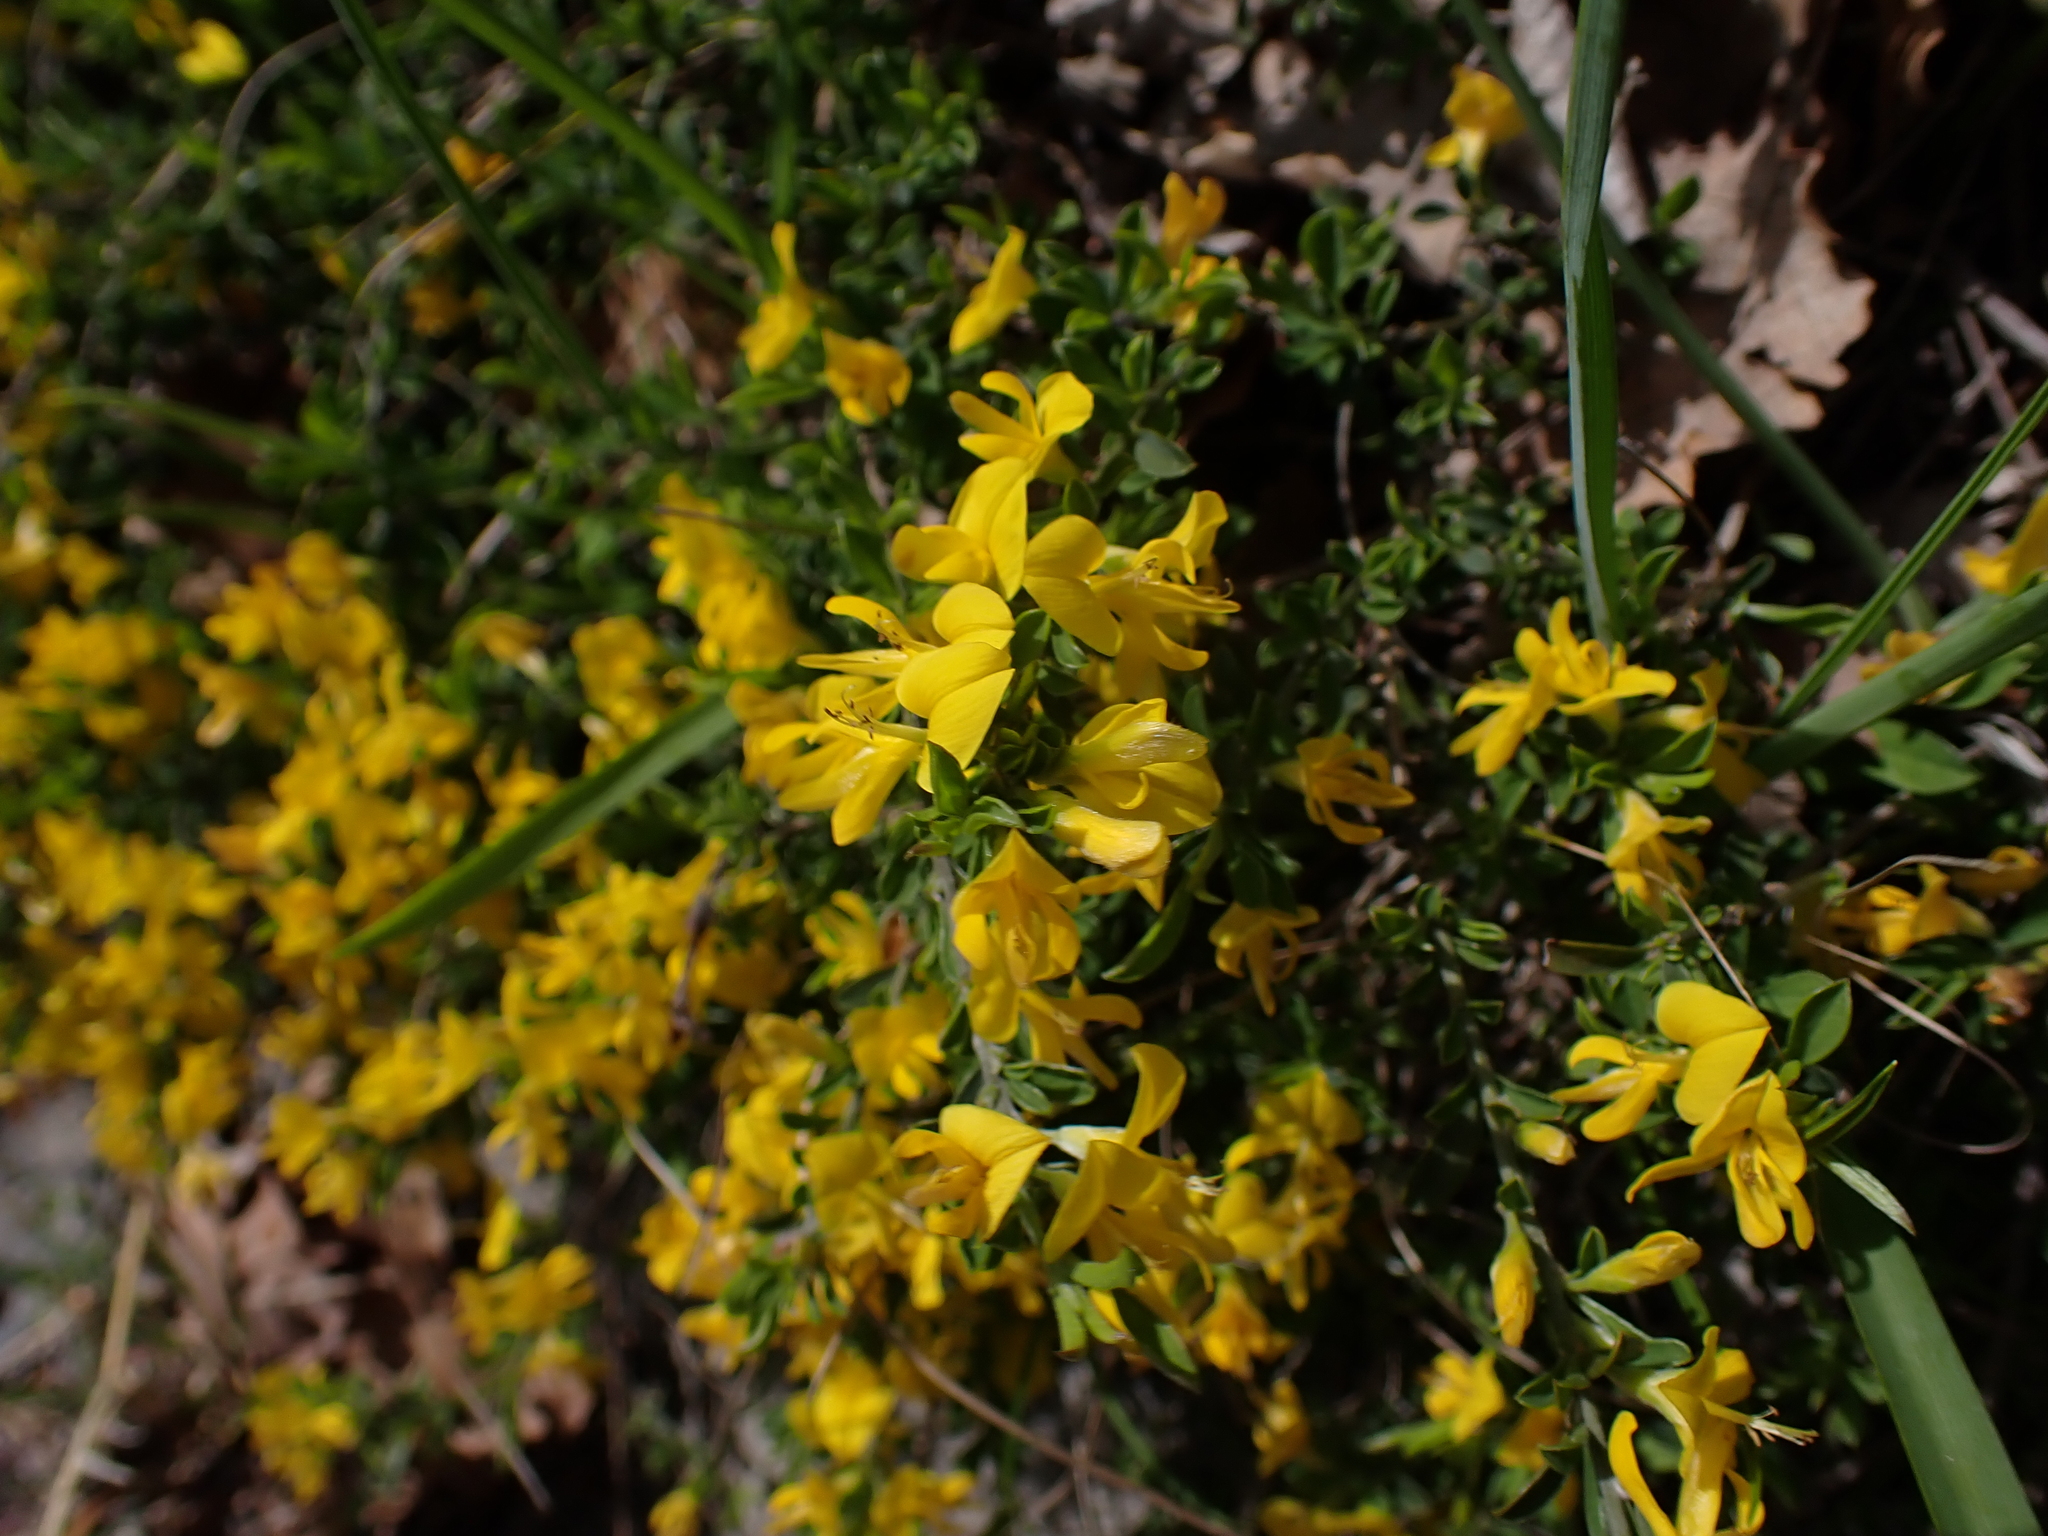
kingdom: Plantae
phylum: Tracheophyta
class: Magnoliopsida
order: Fabales
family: Fabaceae
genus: Genista
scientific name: Genista pilosa
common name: Hairy greenweed
